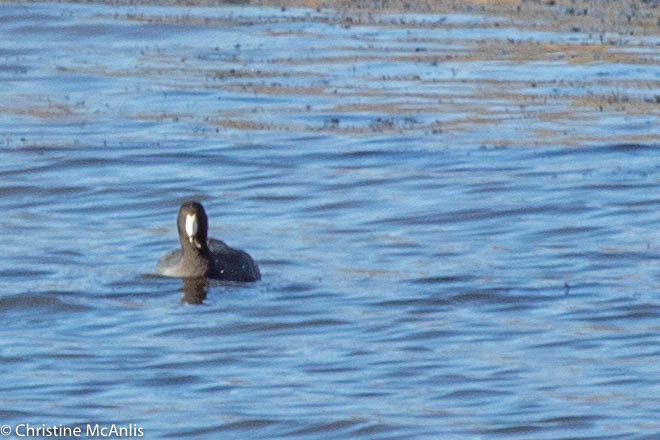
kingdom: Animalia
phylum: Chordata
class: Aves
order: Gruiformes
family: Rallidae
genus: Fulica
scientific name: Fulica americana
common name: American coot
